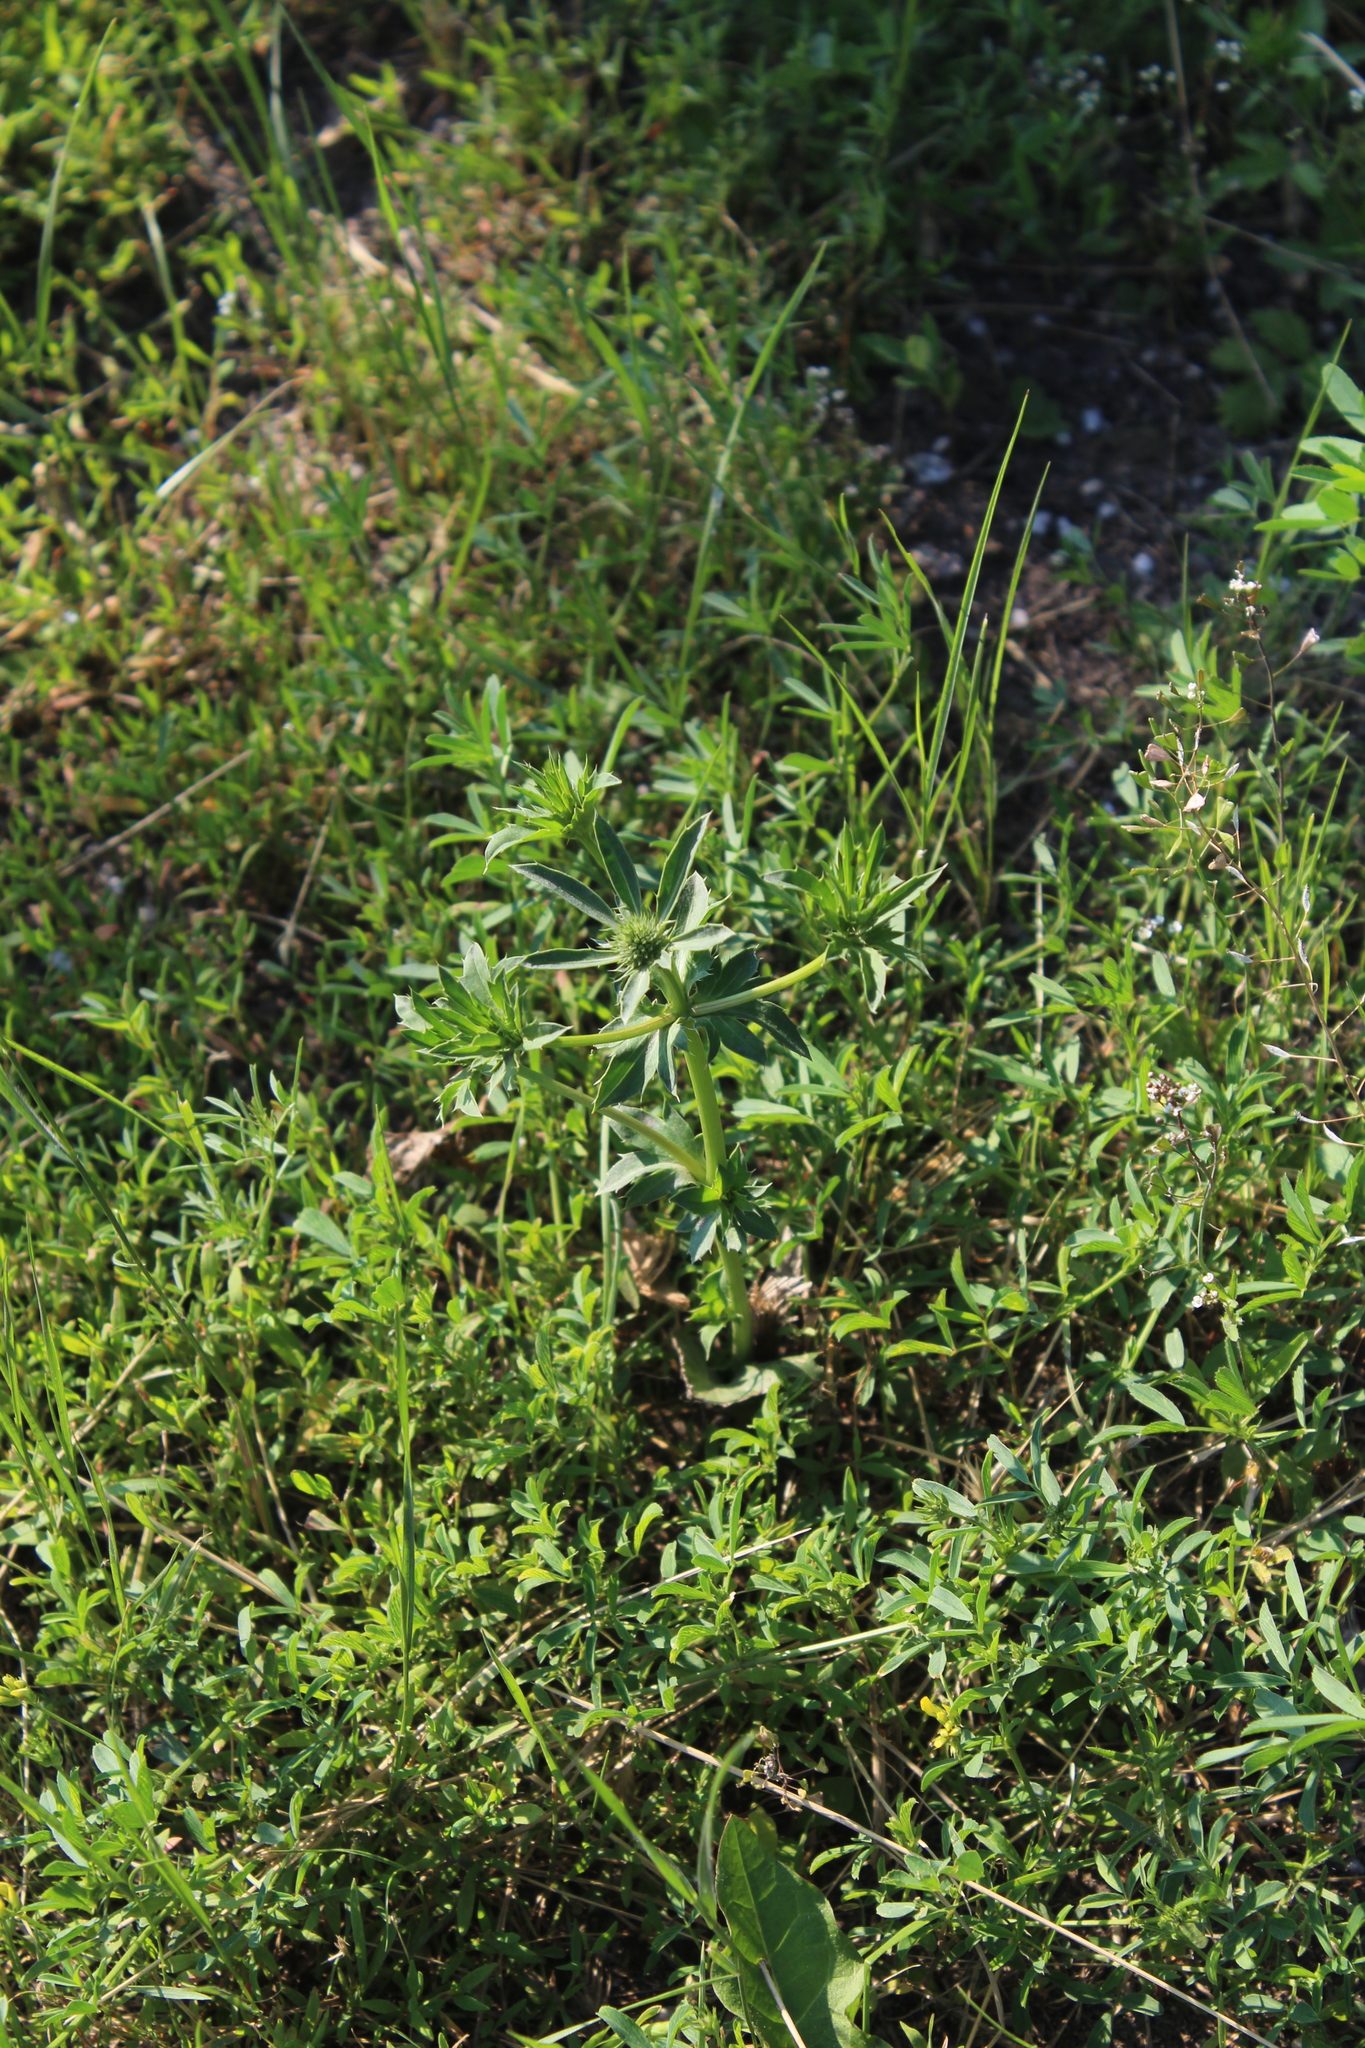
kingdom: Plantae
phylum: Tracheophyta
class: Magnoliopsida
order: Apiales
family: Apiaceae
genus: Eryngium
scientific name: Eryngium planum
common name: Blue eryngo
